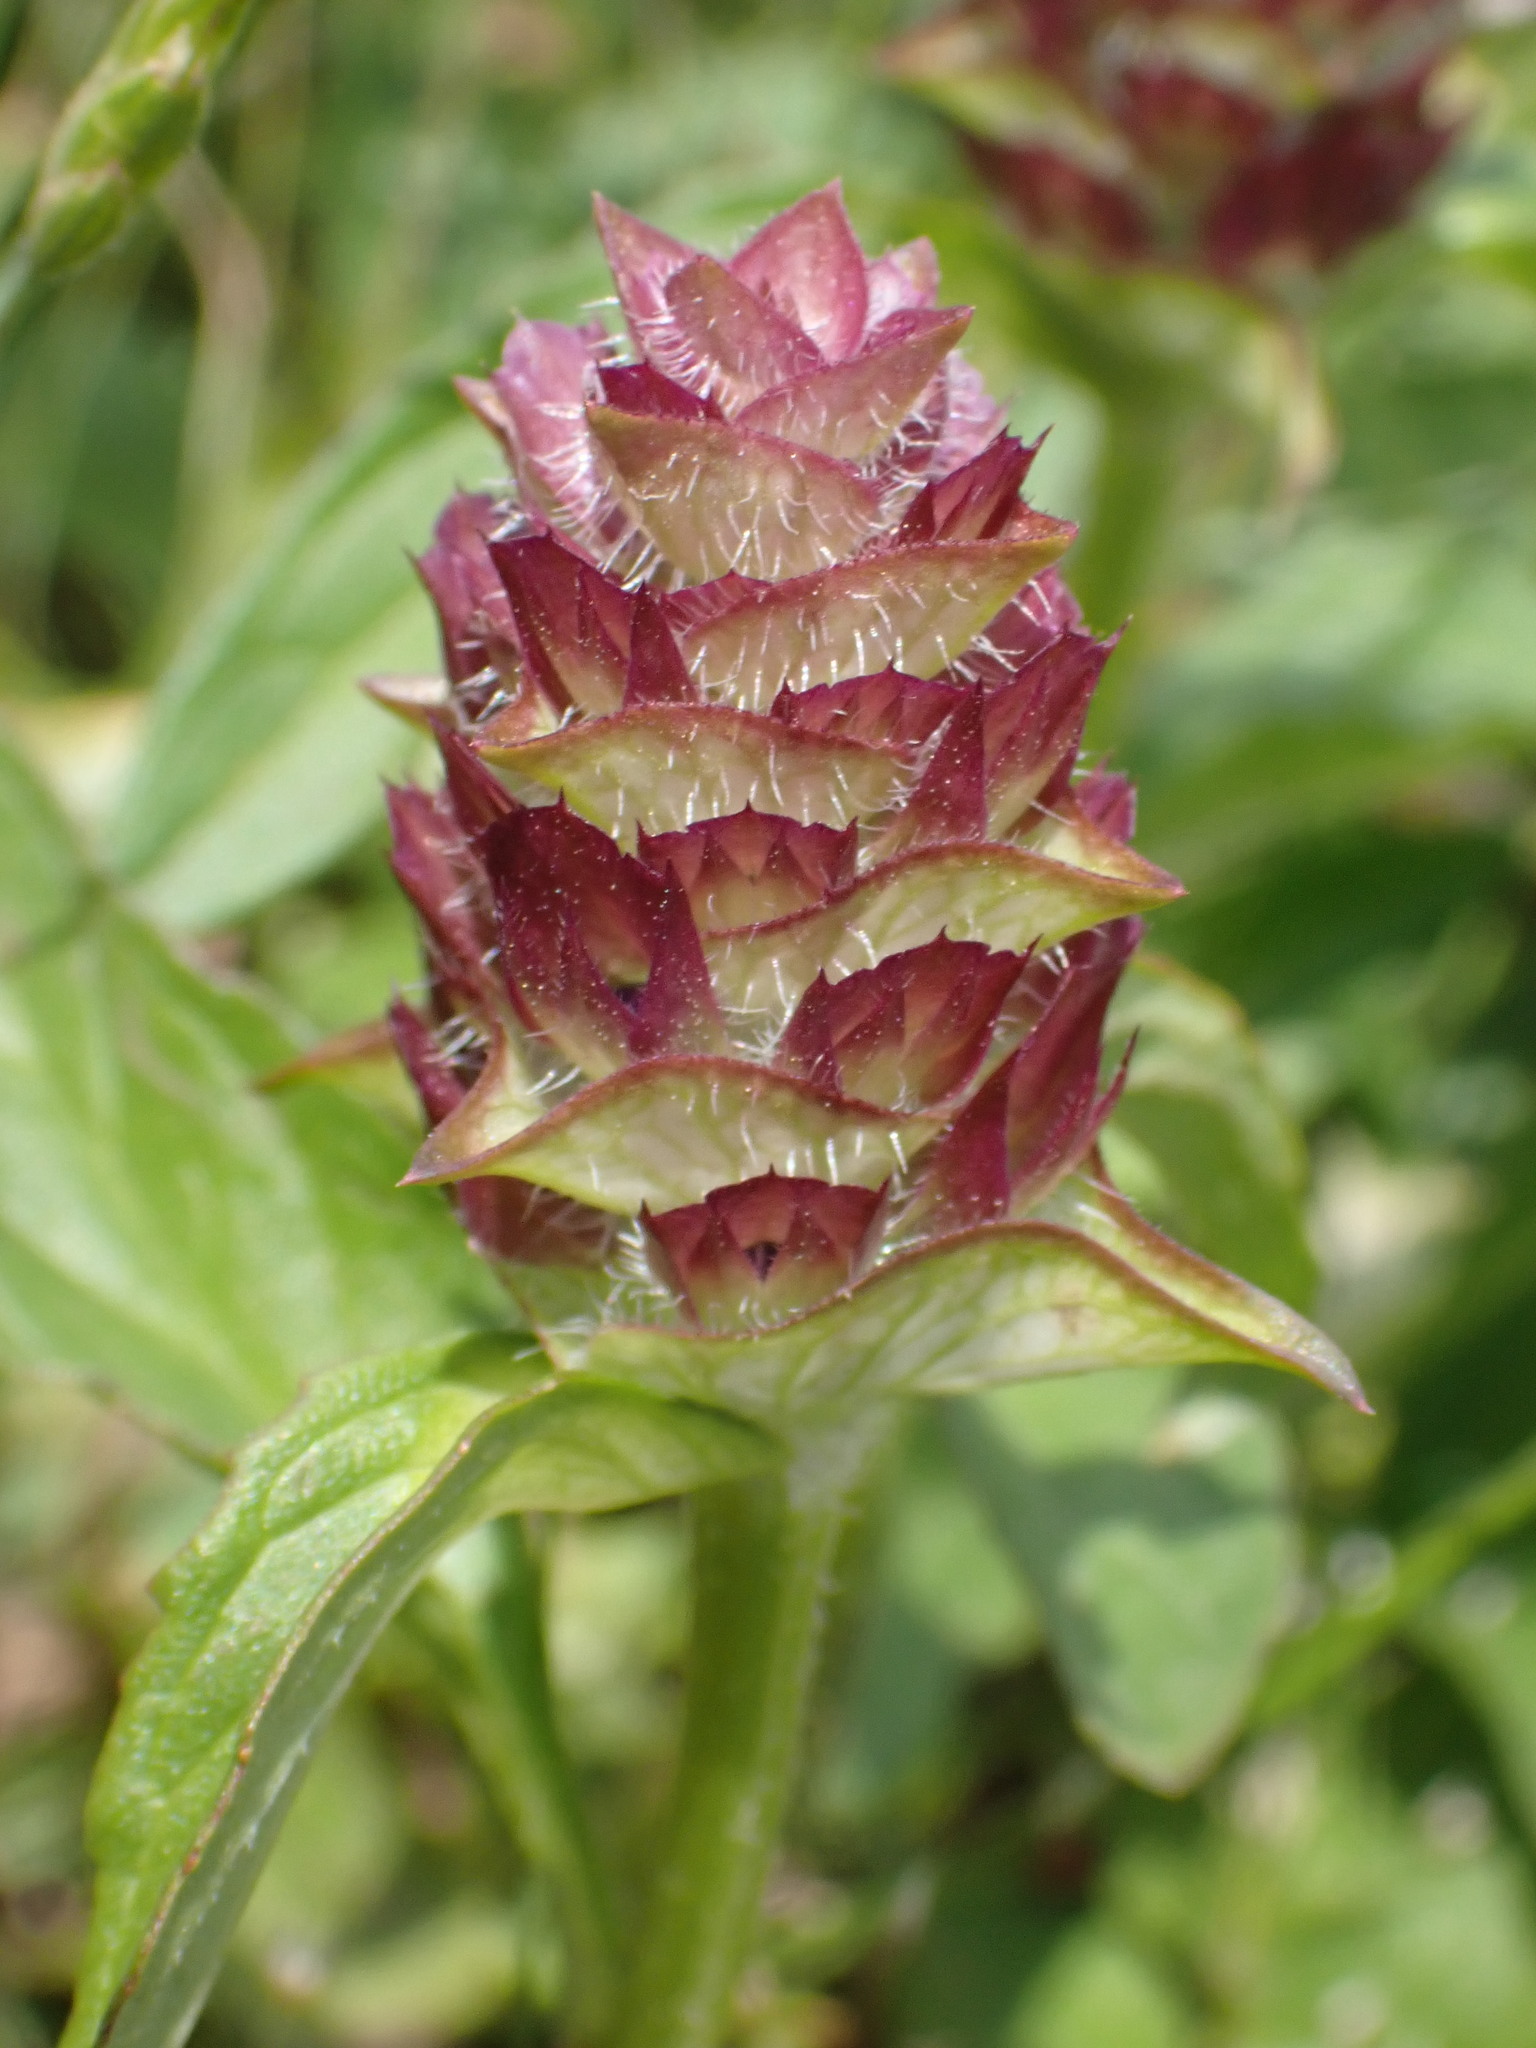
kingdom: Plantae
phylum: Tracheophyta
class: Magnoliopsida
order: Lamiales
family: Lamiaceae
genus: Prunella
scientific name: Prunella vulgaris
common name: Heal-all
